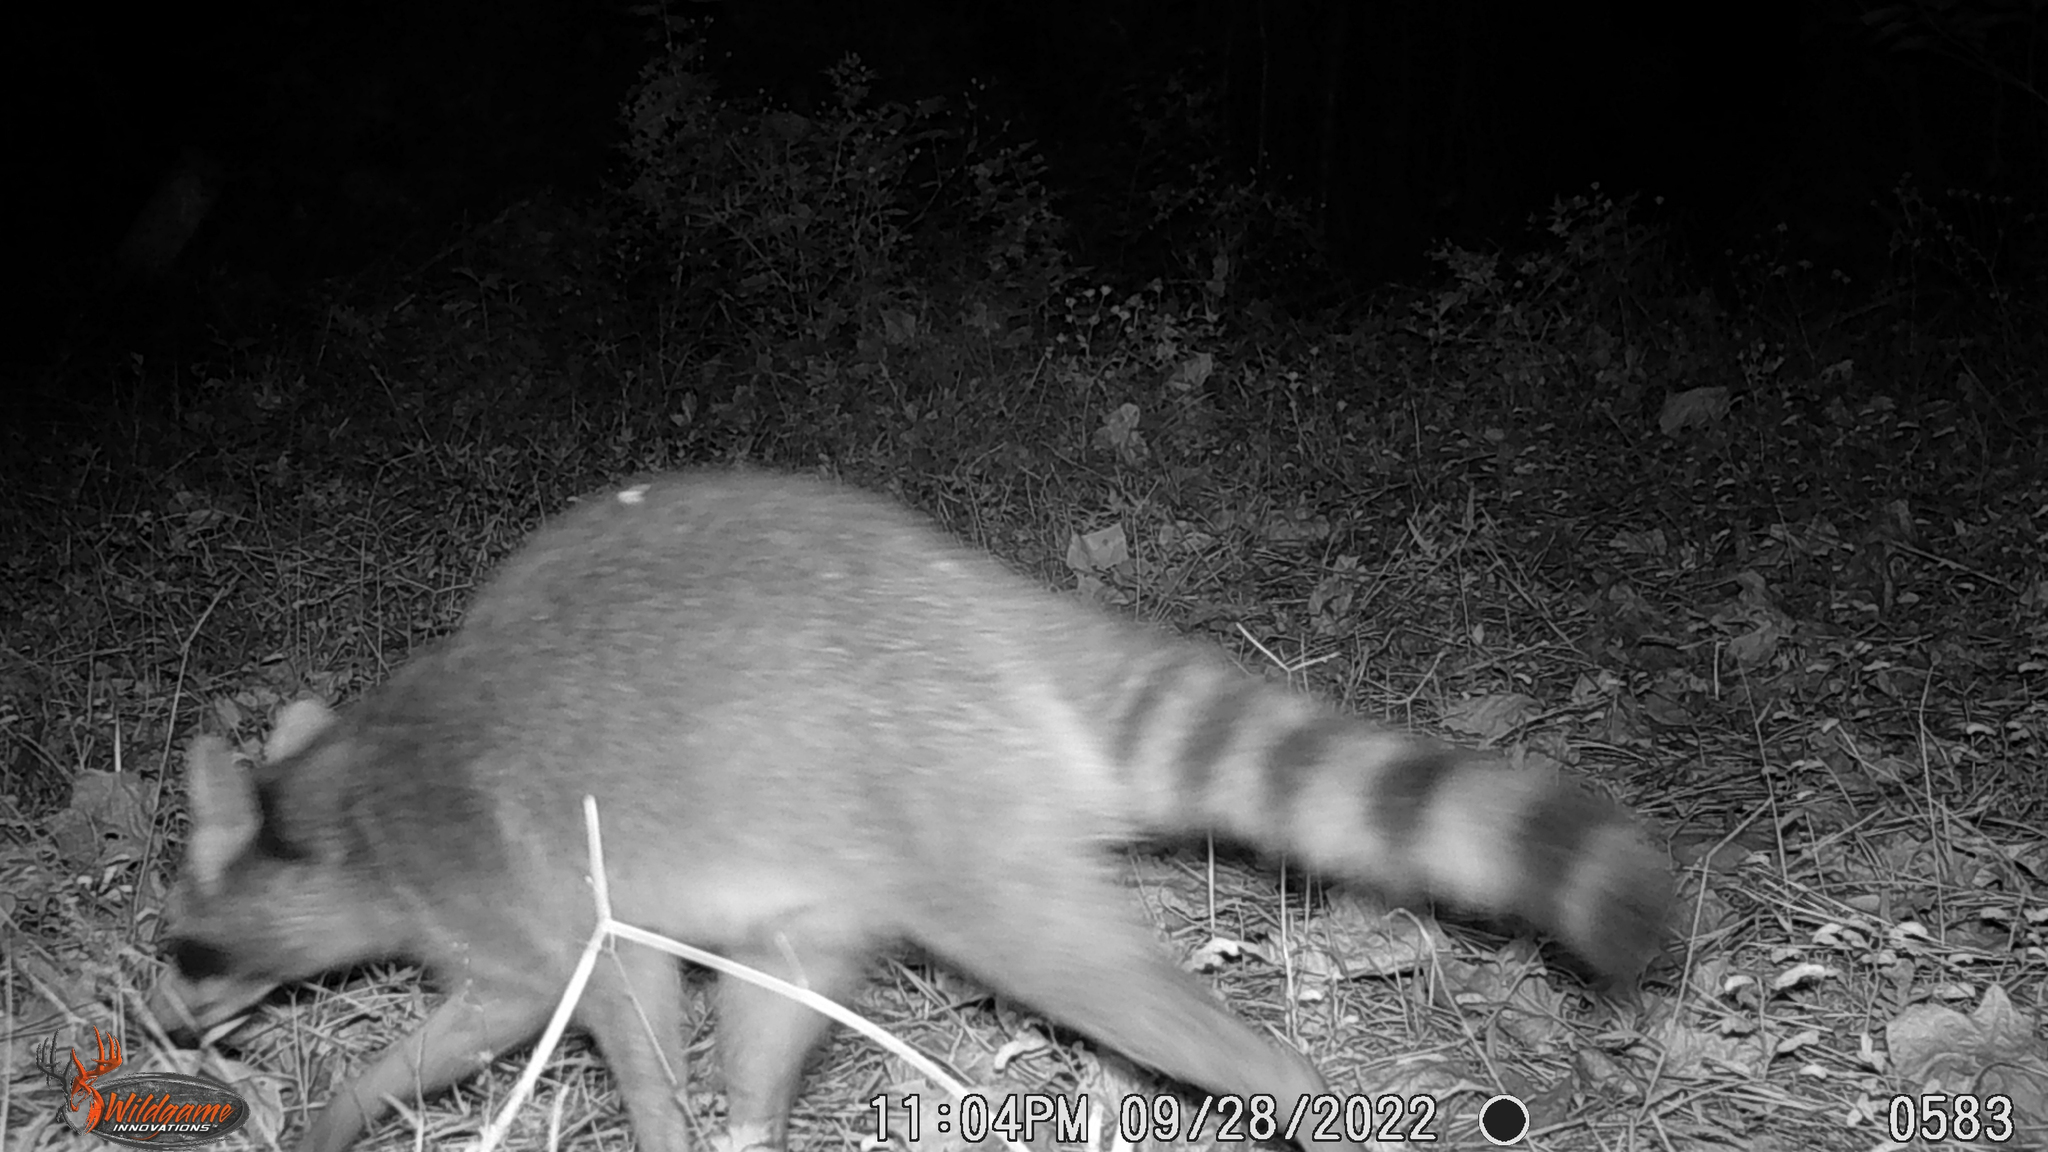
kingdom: Animalia
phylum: Chordata
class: Mammalia
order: Carnivora
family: Procyonidae
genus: Procyon
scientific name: Procyon lotor
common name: Raccoon
